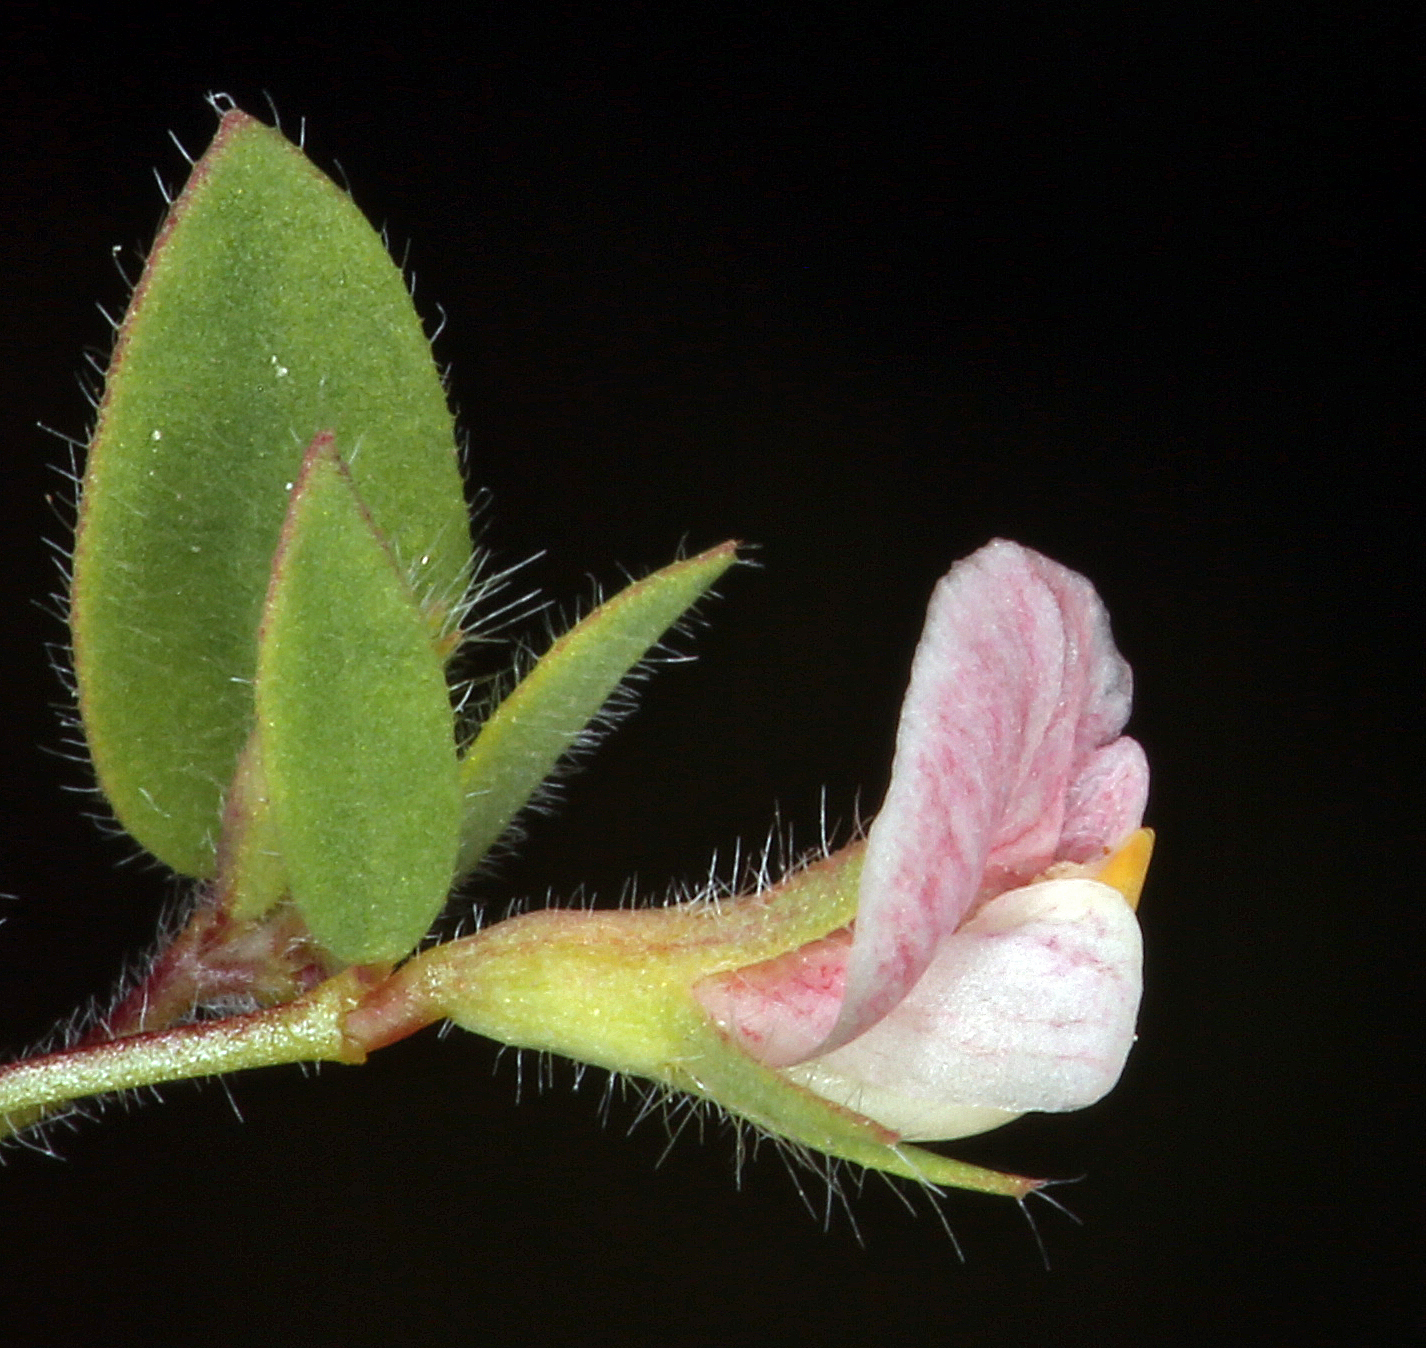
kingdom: Plantae
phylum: Tracheophyta
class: Magnoliopsida
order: Fabales
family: Fabaceae
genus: Acmispon
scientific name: Acmispon americanus
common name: American bird's-foot trefoil
